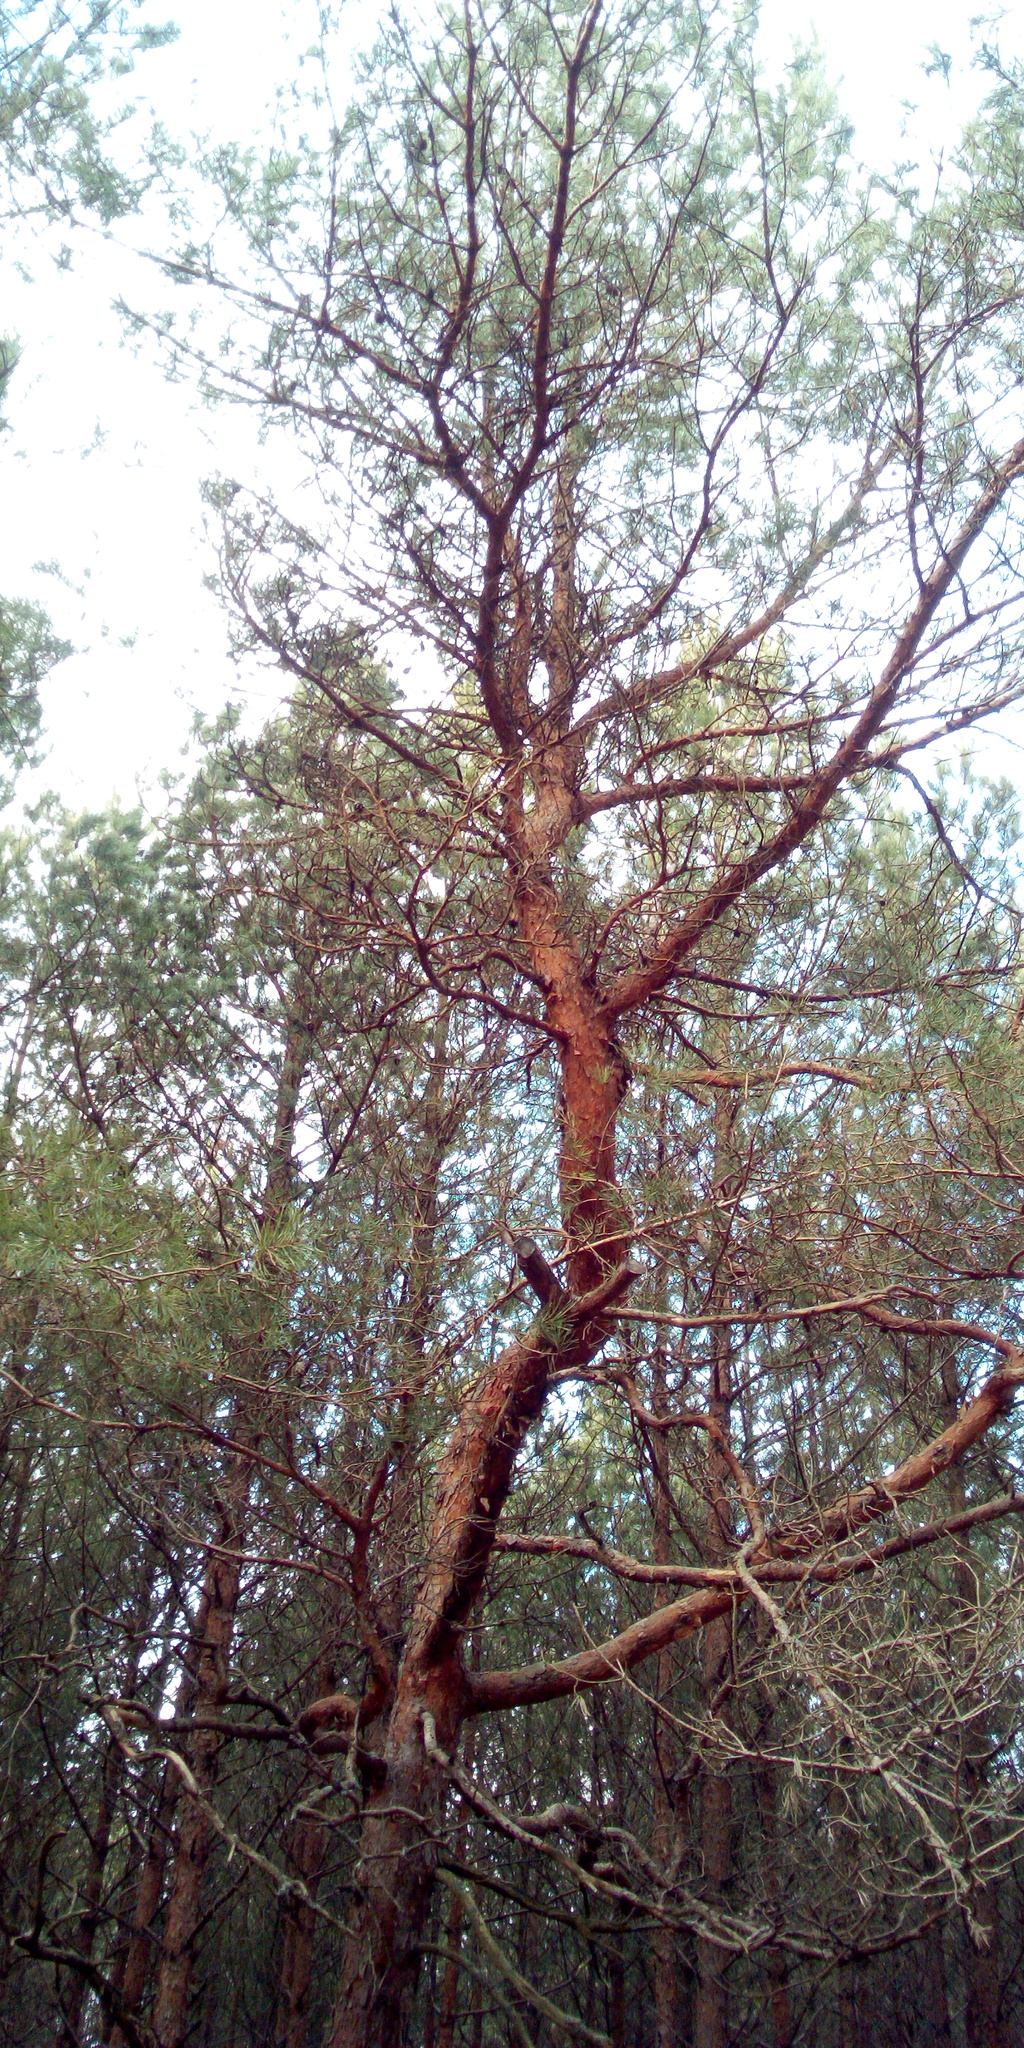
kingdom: Plantae
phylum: Tracheophyta
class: Pinopsida
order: Pinales
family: Pinaceae
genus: Pinus
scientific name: Pinus sylvestris
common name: Scots pine
